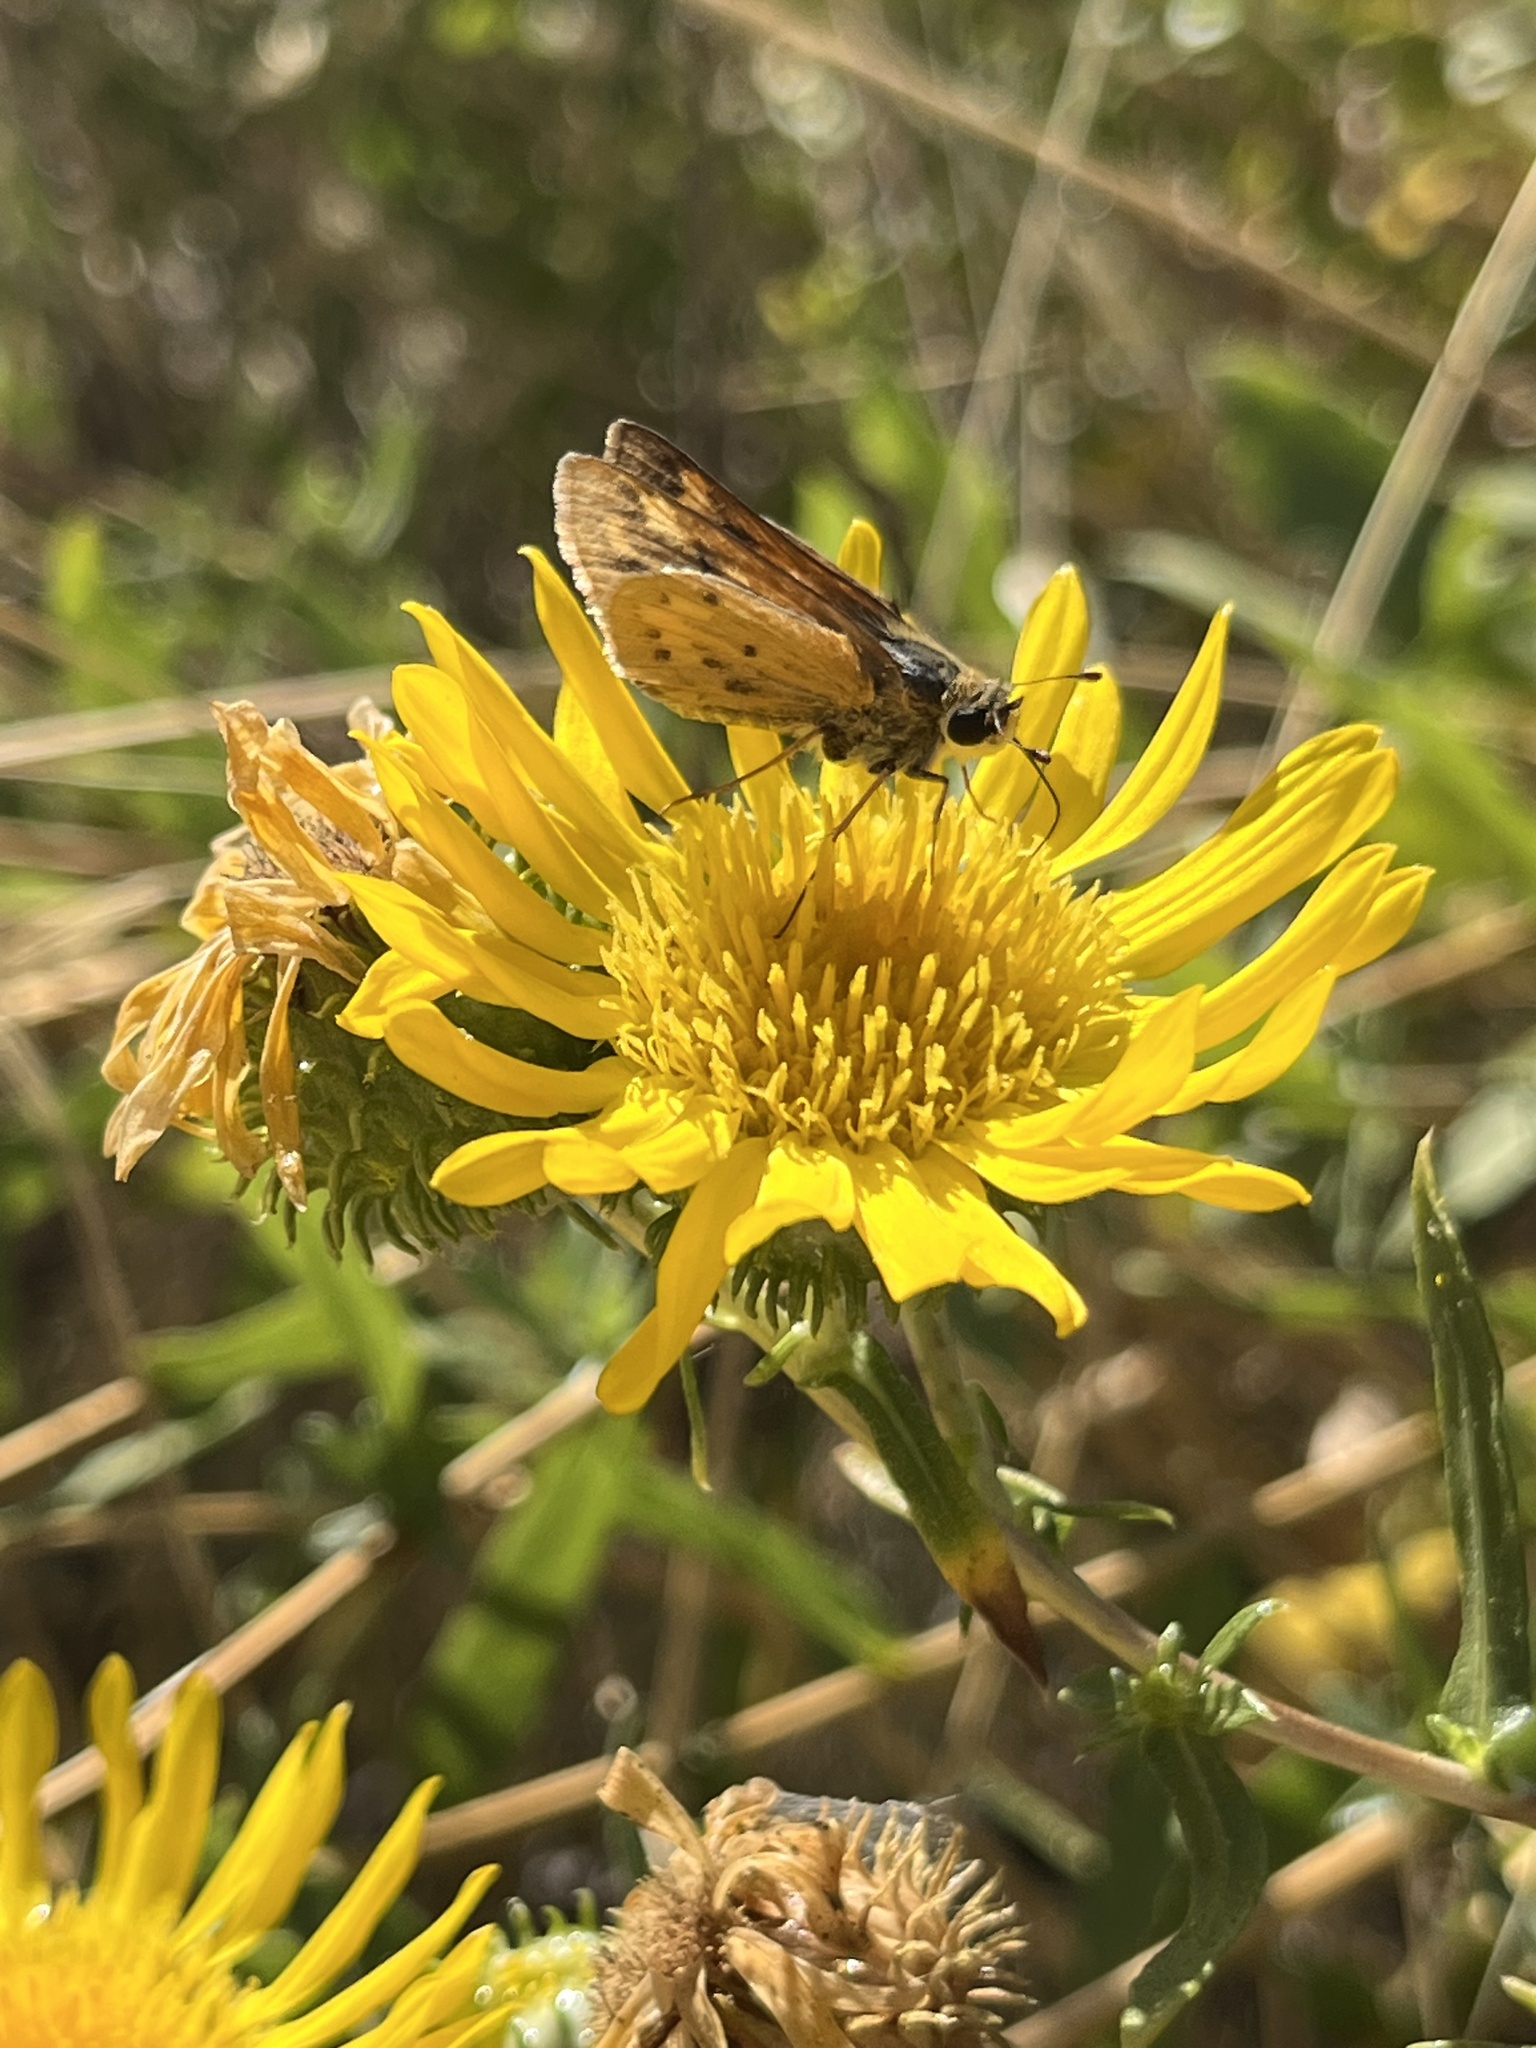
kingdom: Animalia
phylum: Arthropoda
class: Insecta
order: Lepidoptera
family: Hesperiidae
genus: Hylephila
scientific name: Hylephila phyleus
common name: Fiery skipper
